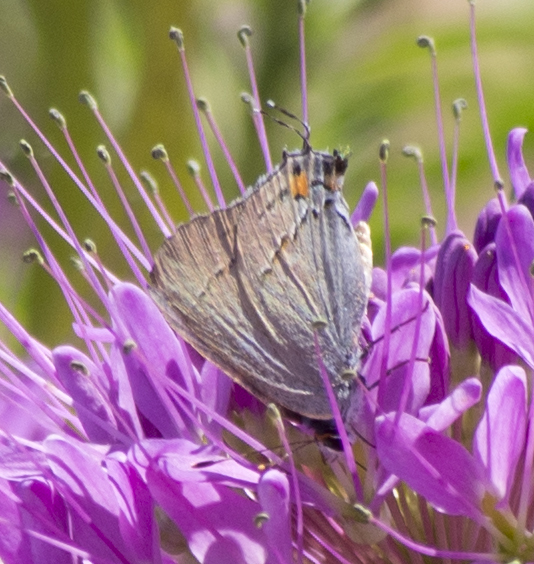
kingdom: Animalia
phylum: Arthropoda
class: Insecta
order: Lepidoptera
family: Lycaenidae
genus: Strymon
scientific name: Strymon melinus
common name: Gray hairstreak
